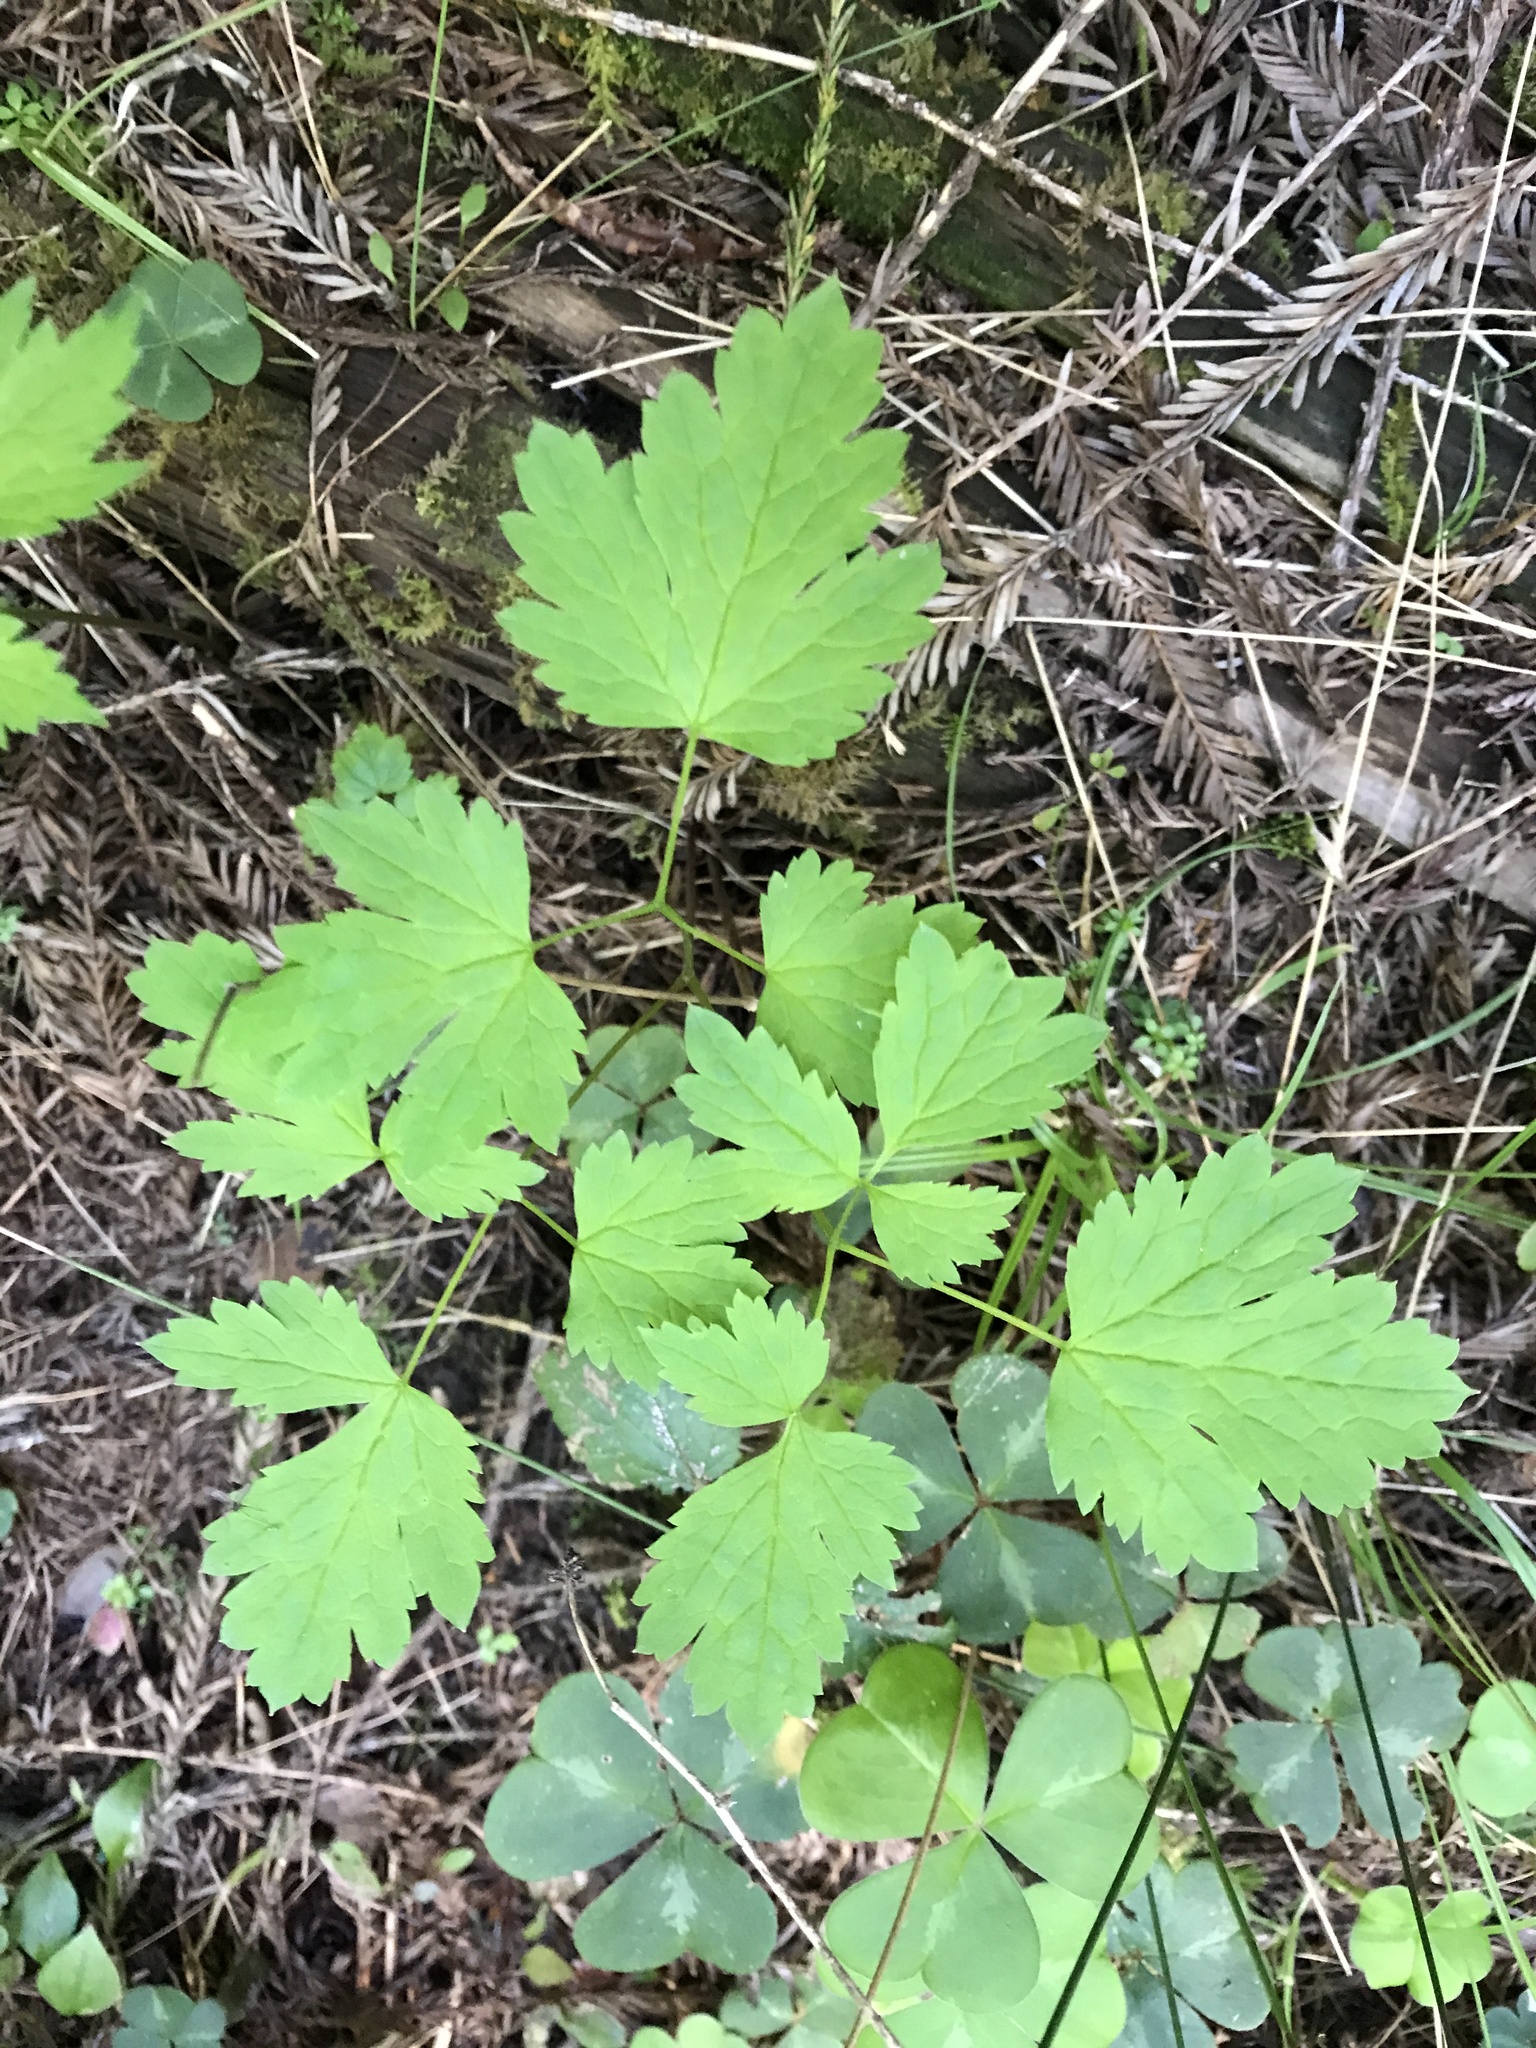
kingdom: Plantae
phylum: Tracheophyta
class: Magnoliopsida
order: Ranunculales
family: Ranunculaceae
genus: Actaea
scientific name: Actaea rubra
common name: Red baneberry
